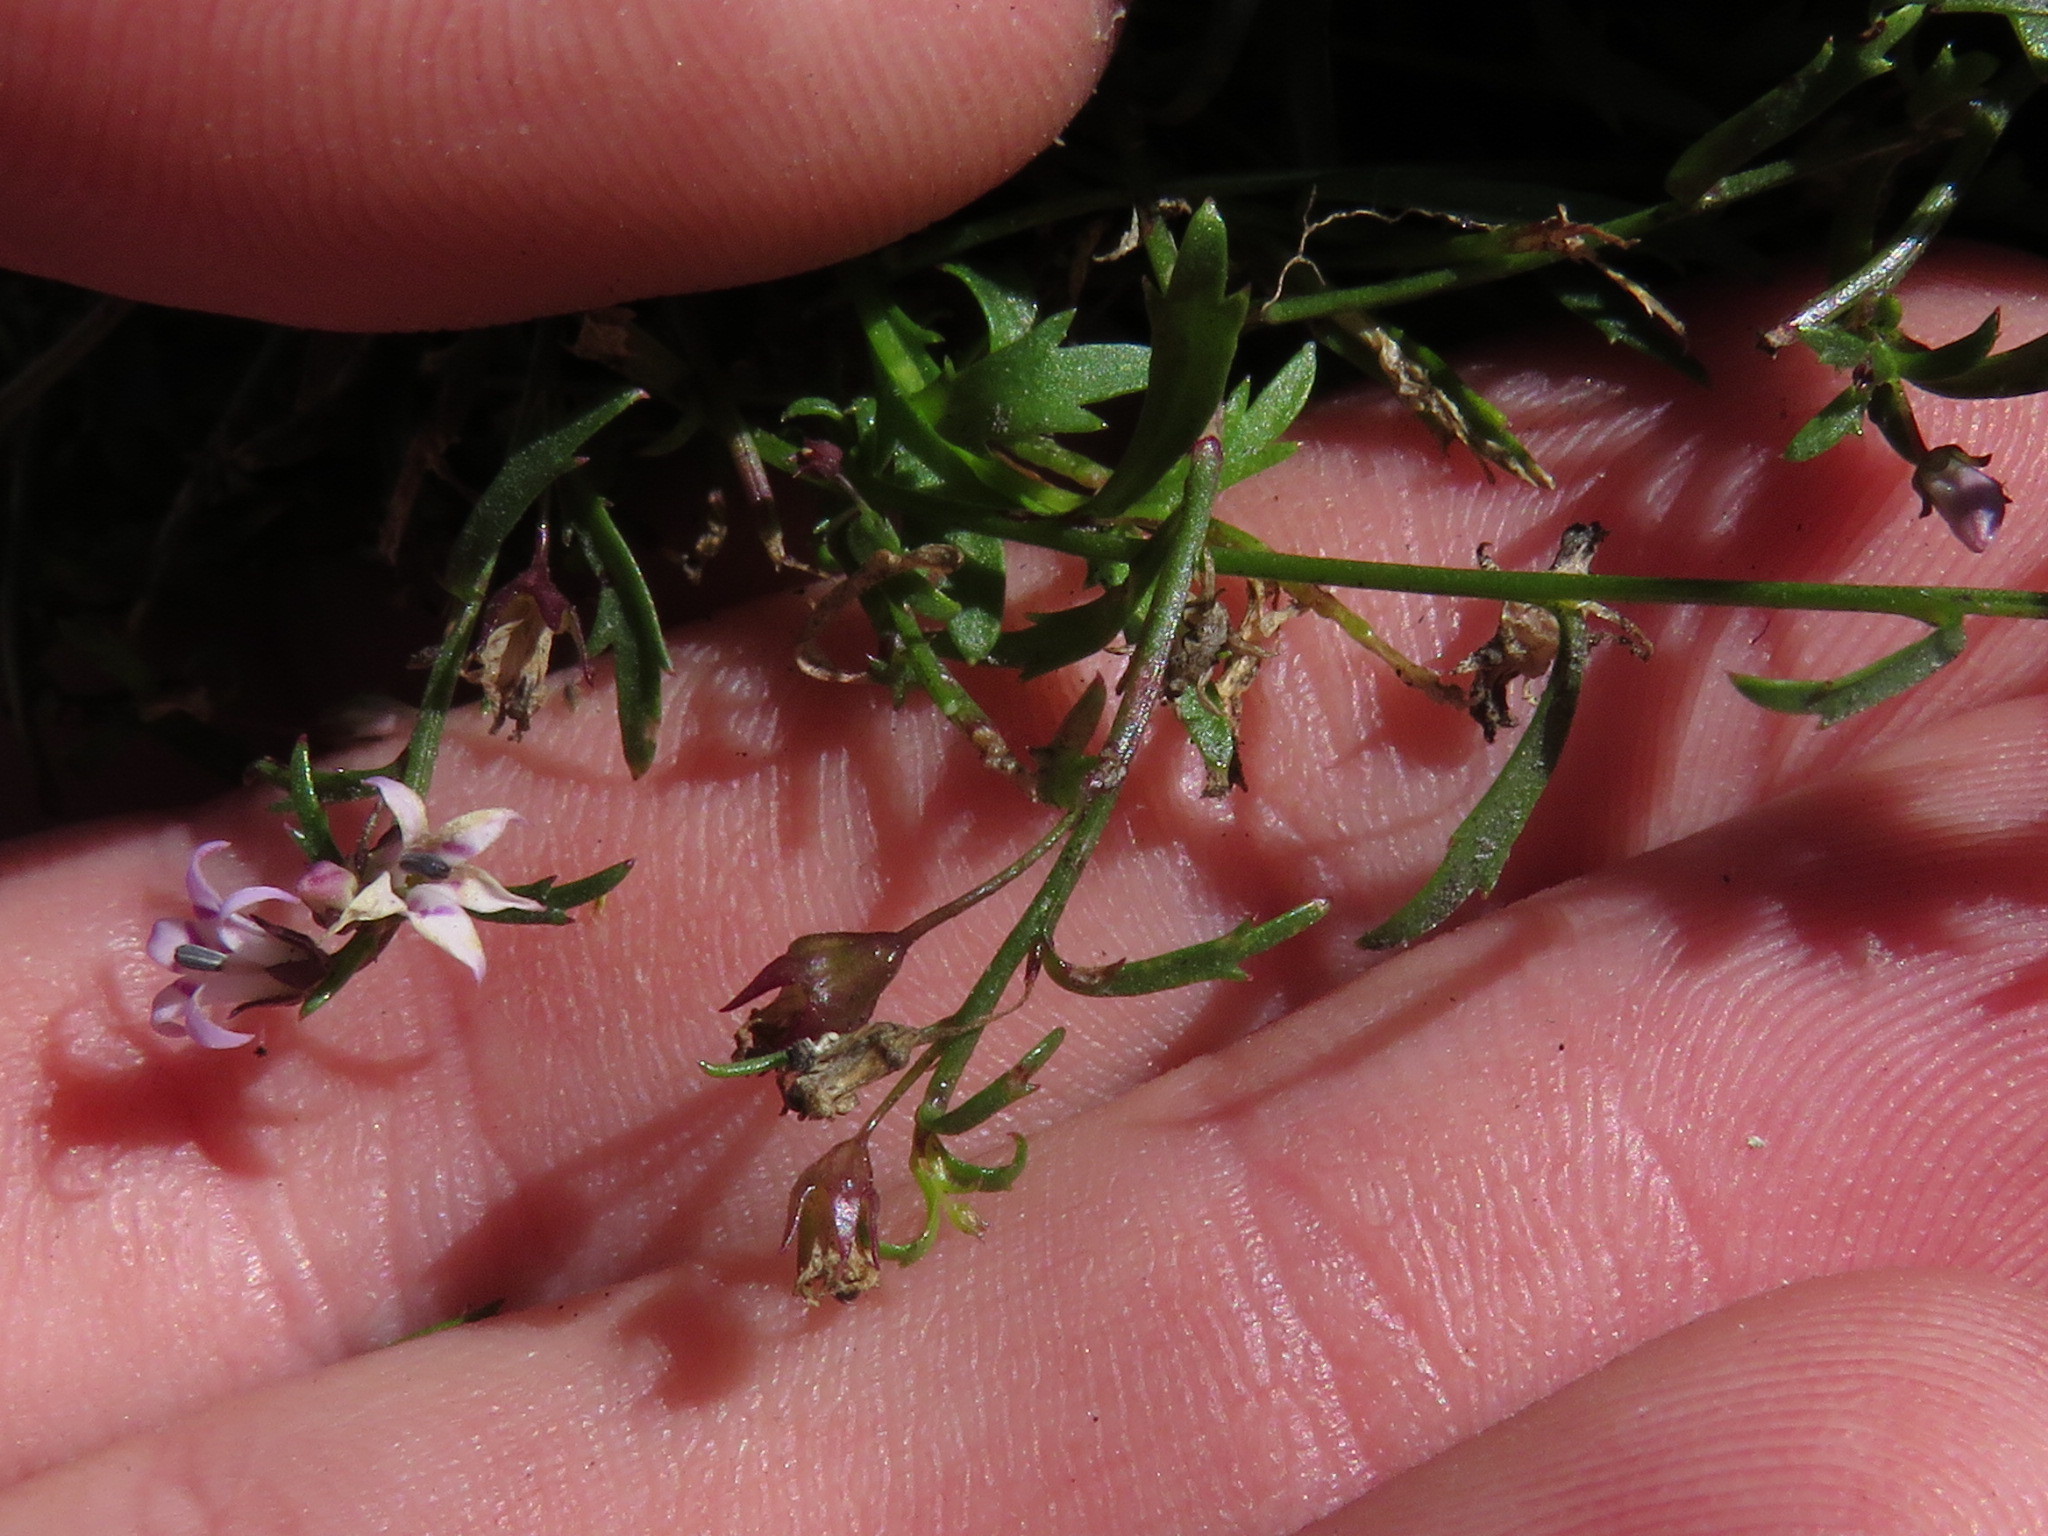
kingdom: Plantae
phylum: Tracheophyta
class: Magnoliopsida
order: Asterales
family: Campanulaceae
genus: Lobelia
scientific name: Lobelia eckloniana
